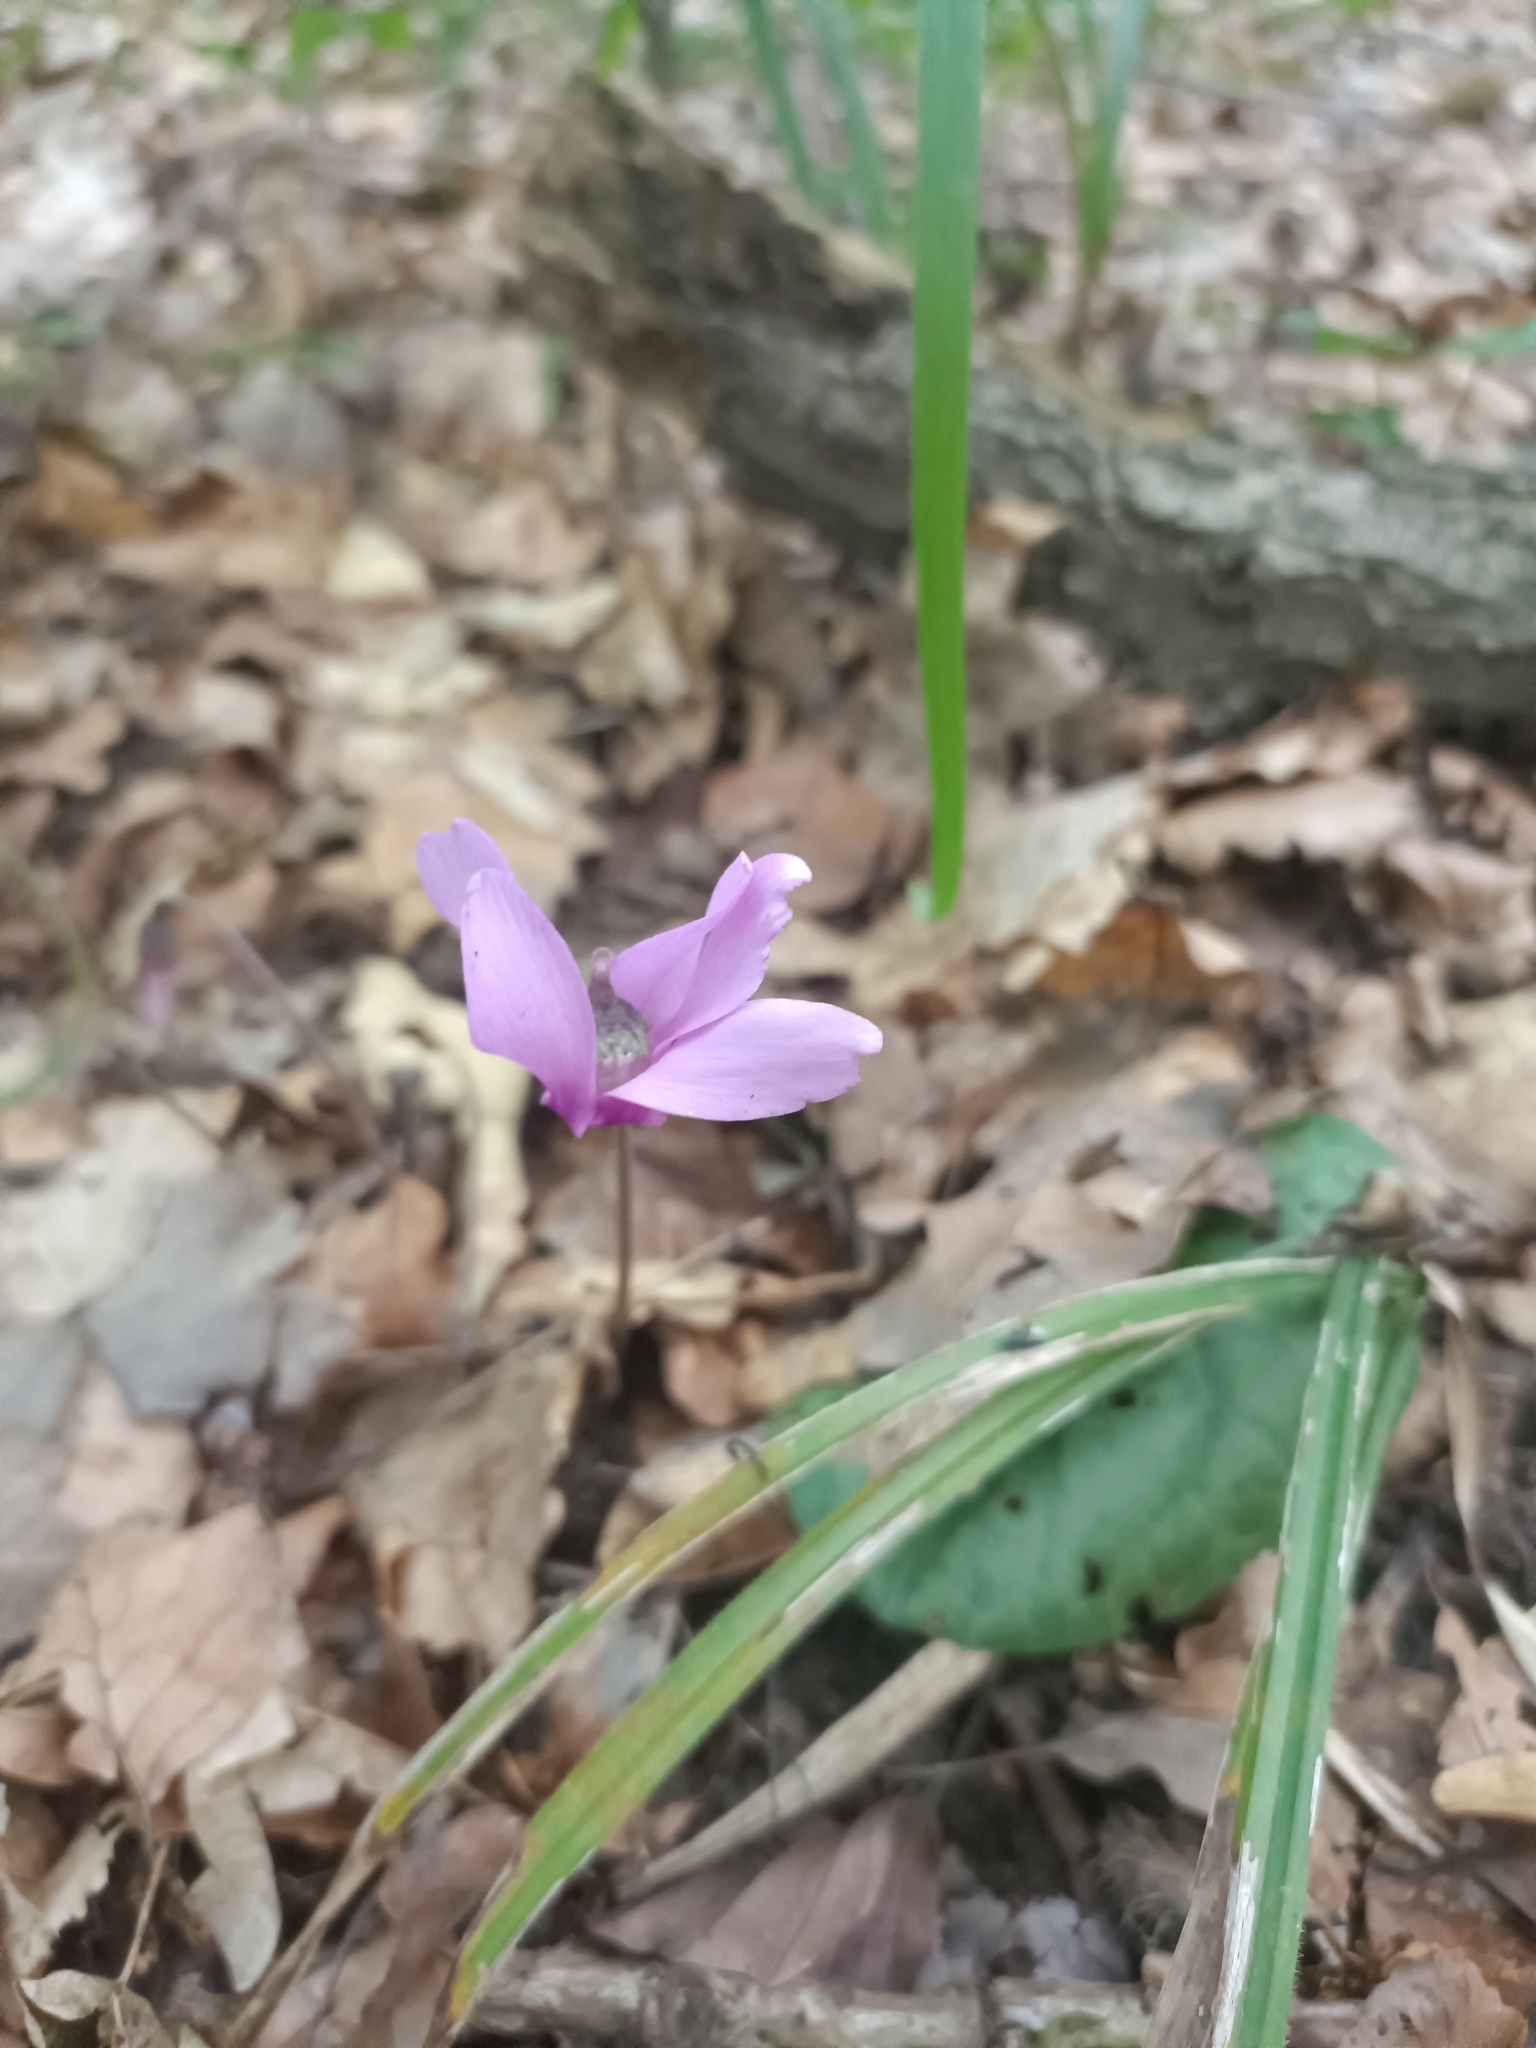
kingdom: Plantae
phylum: Tracheophyta
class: Magnoliopsida
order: Ericales
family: Primulaceae
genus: Cyclamen
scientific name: Cyclamen purpurascens
